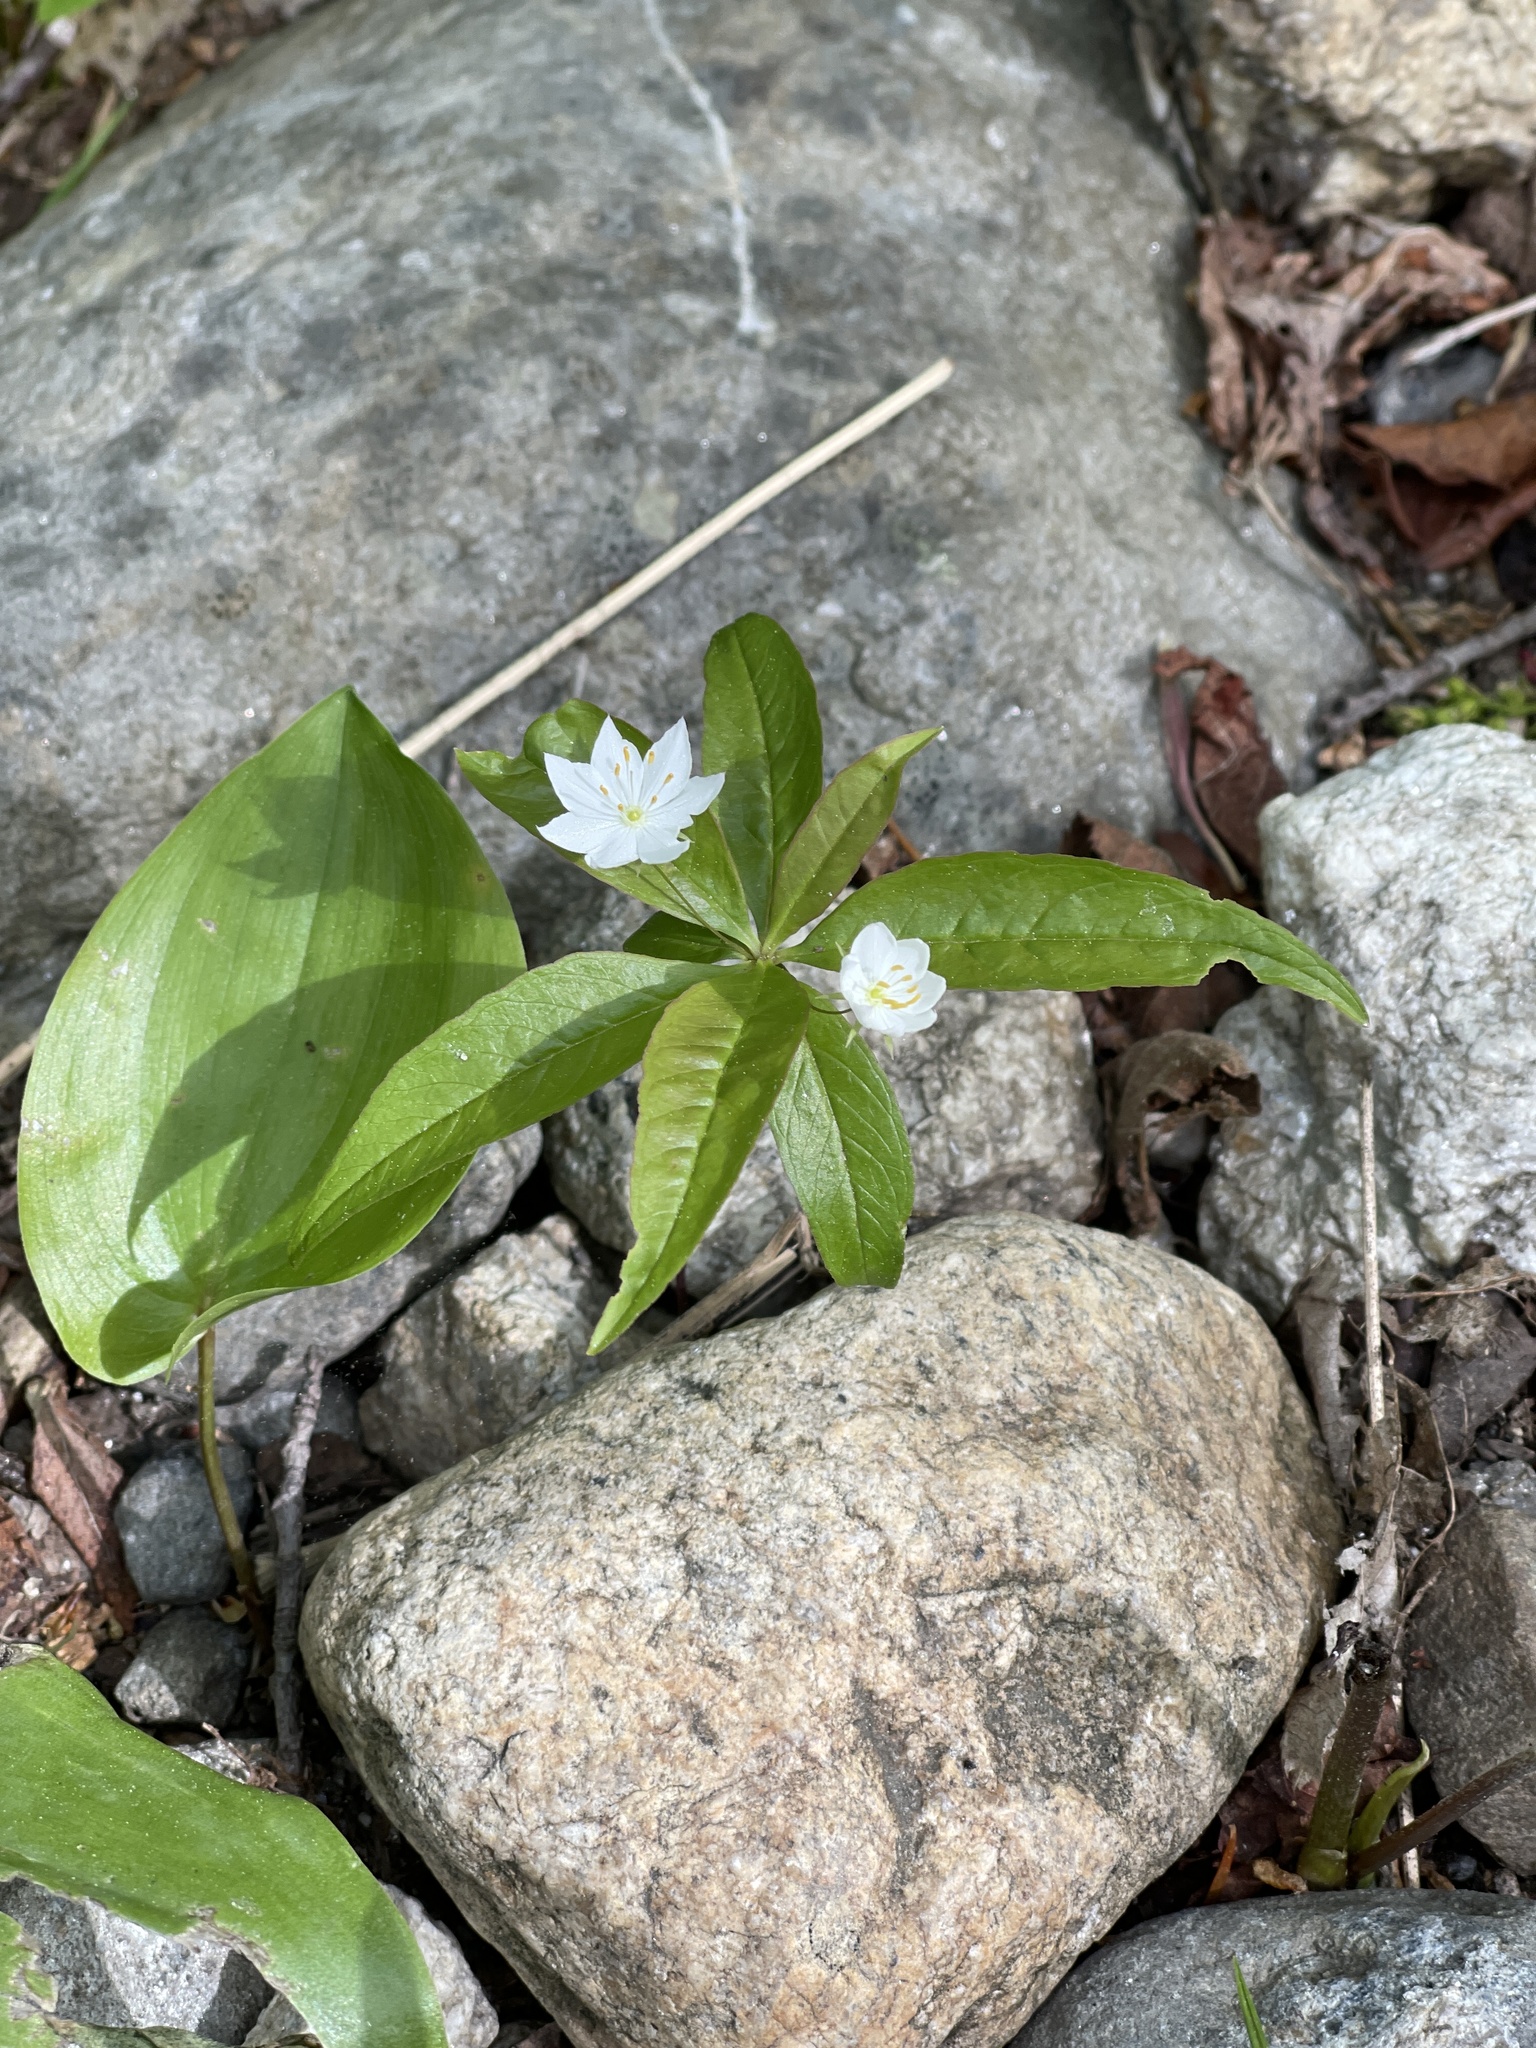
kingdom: Plantae
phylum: Tracheophyta
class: Magnoliopsida
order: Ericales
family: Primulaceae
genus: Lysimachia
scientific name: Lysimachia borealis
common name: American starflower
